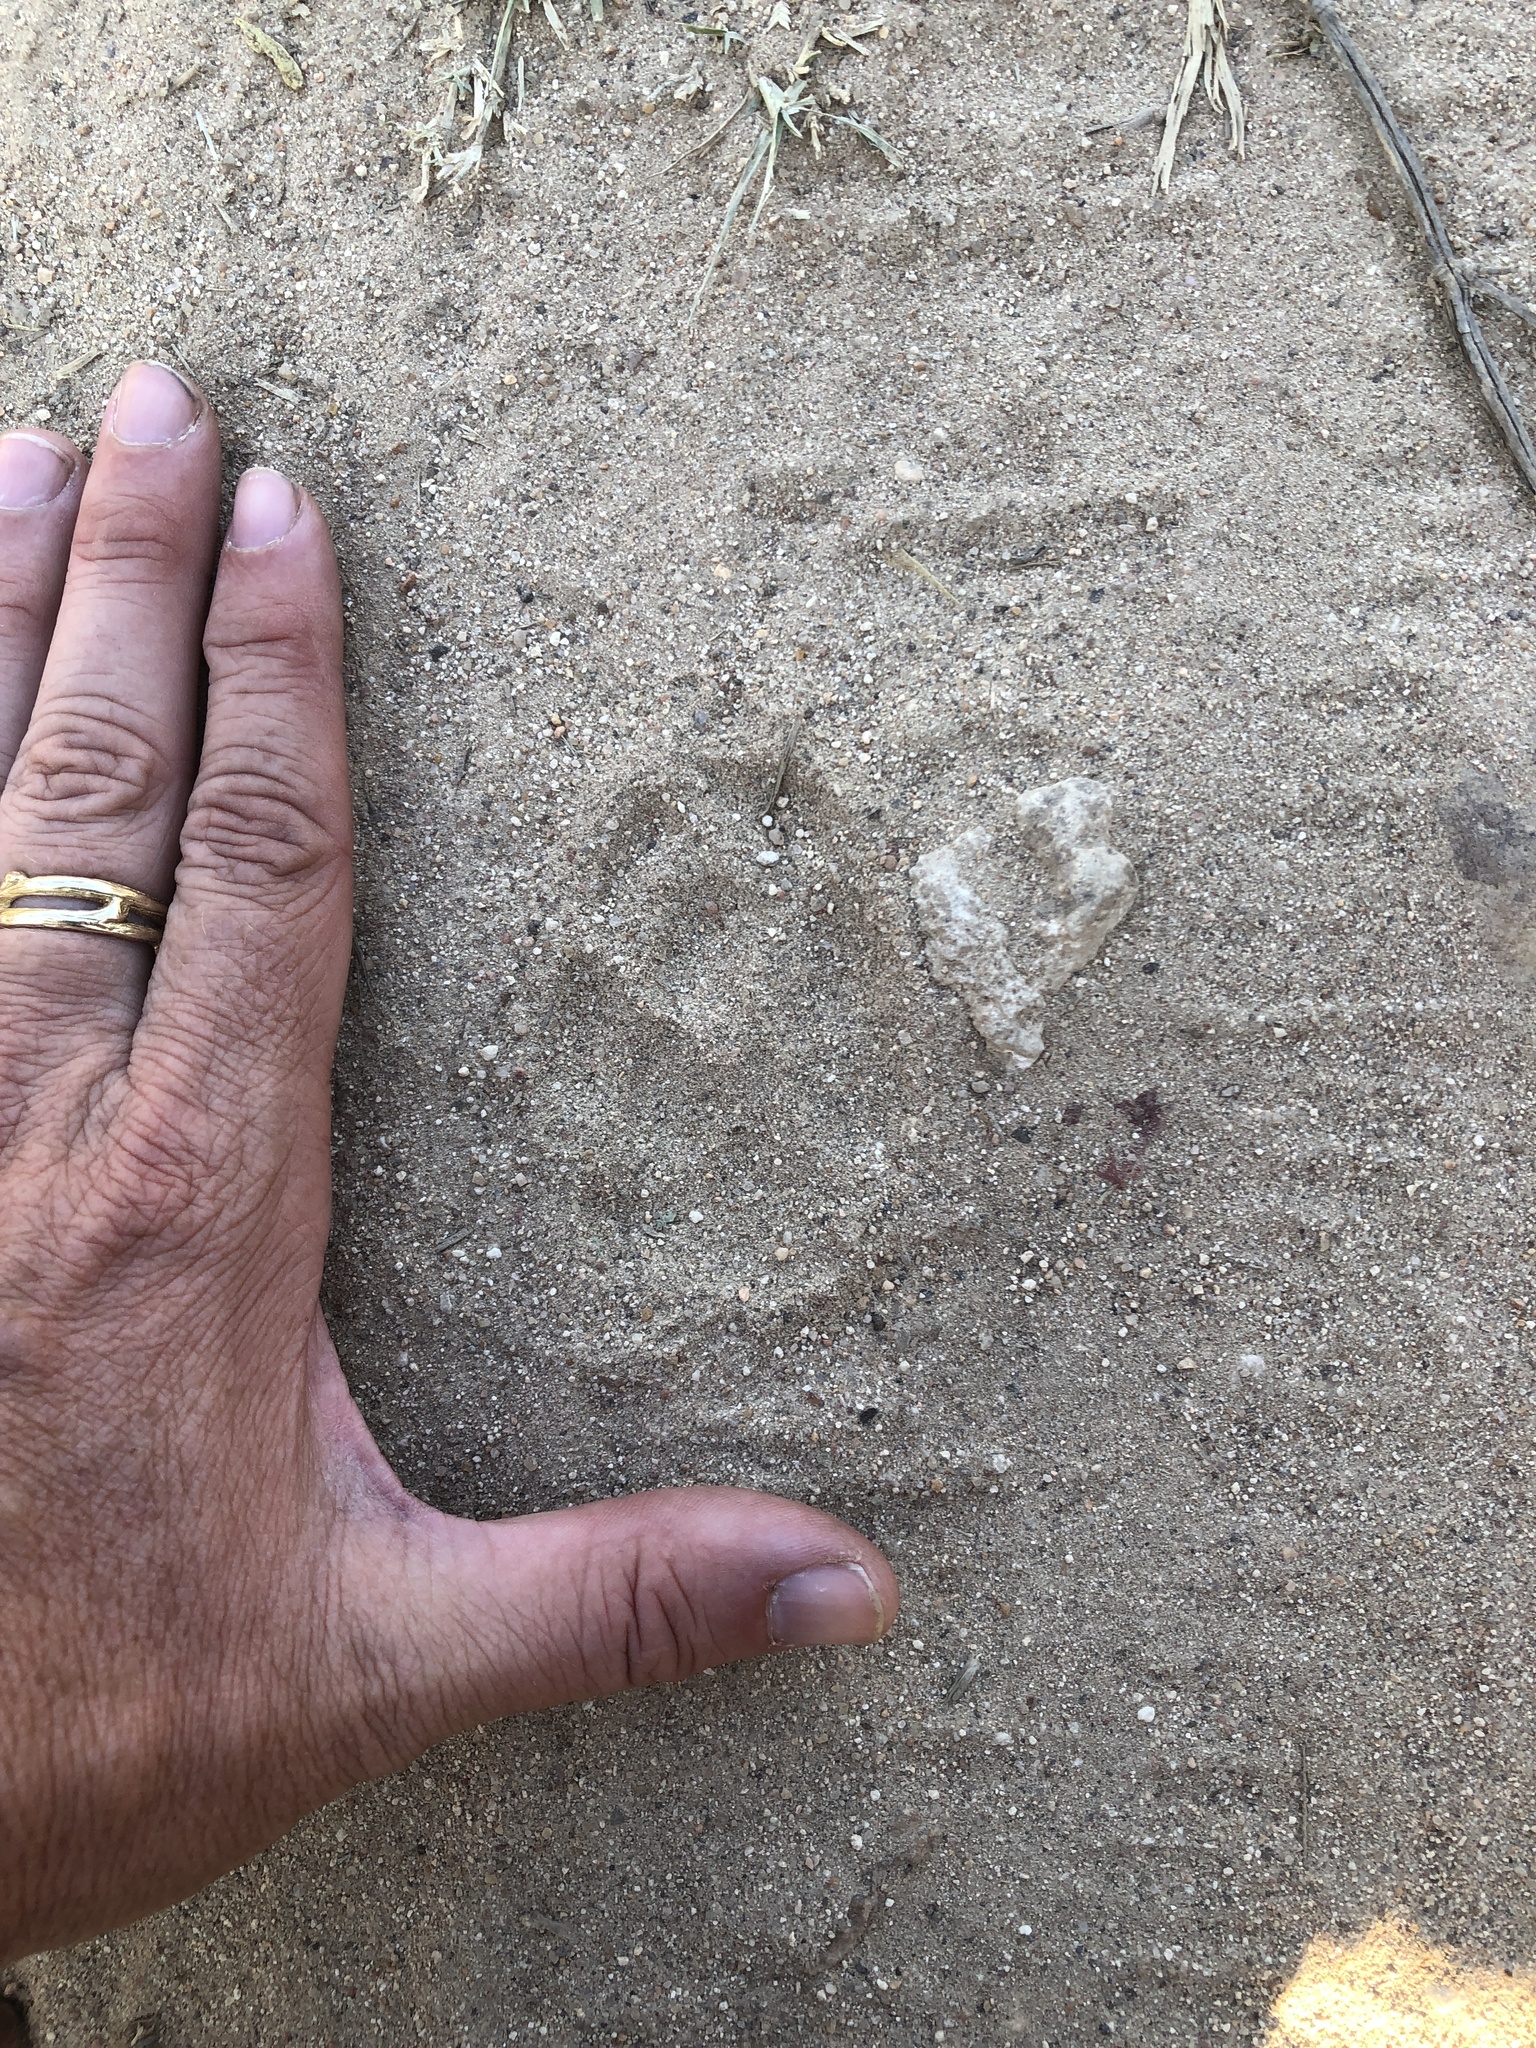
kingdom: Animalia
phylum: Chordata
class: Mammalia
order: Carnivora
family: Canidae
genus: Canis
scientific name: Canis latrans
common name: Coyote
